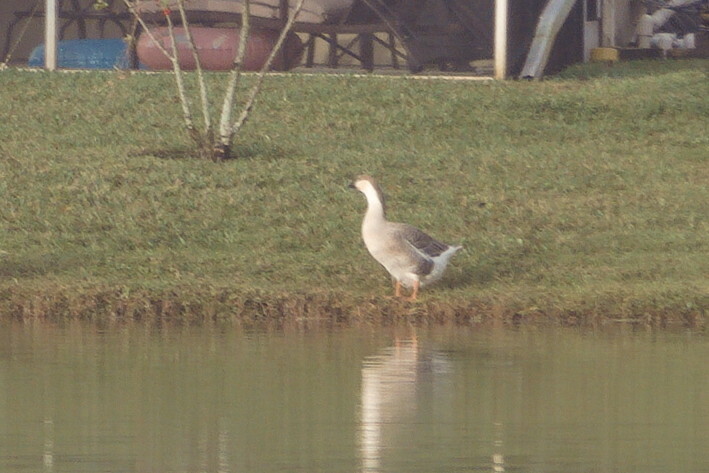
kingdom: Animalia
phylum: Chordata
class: Aves
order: Anseriformes
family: Anatidae
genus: Anser
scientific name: Anser cygnoides
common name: Swan goose
